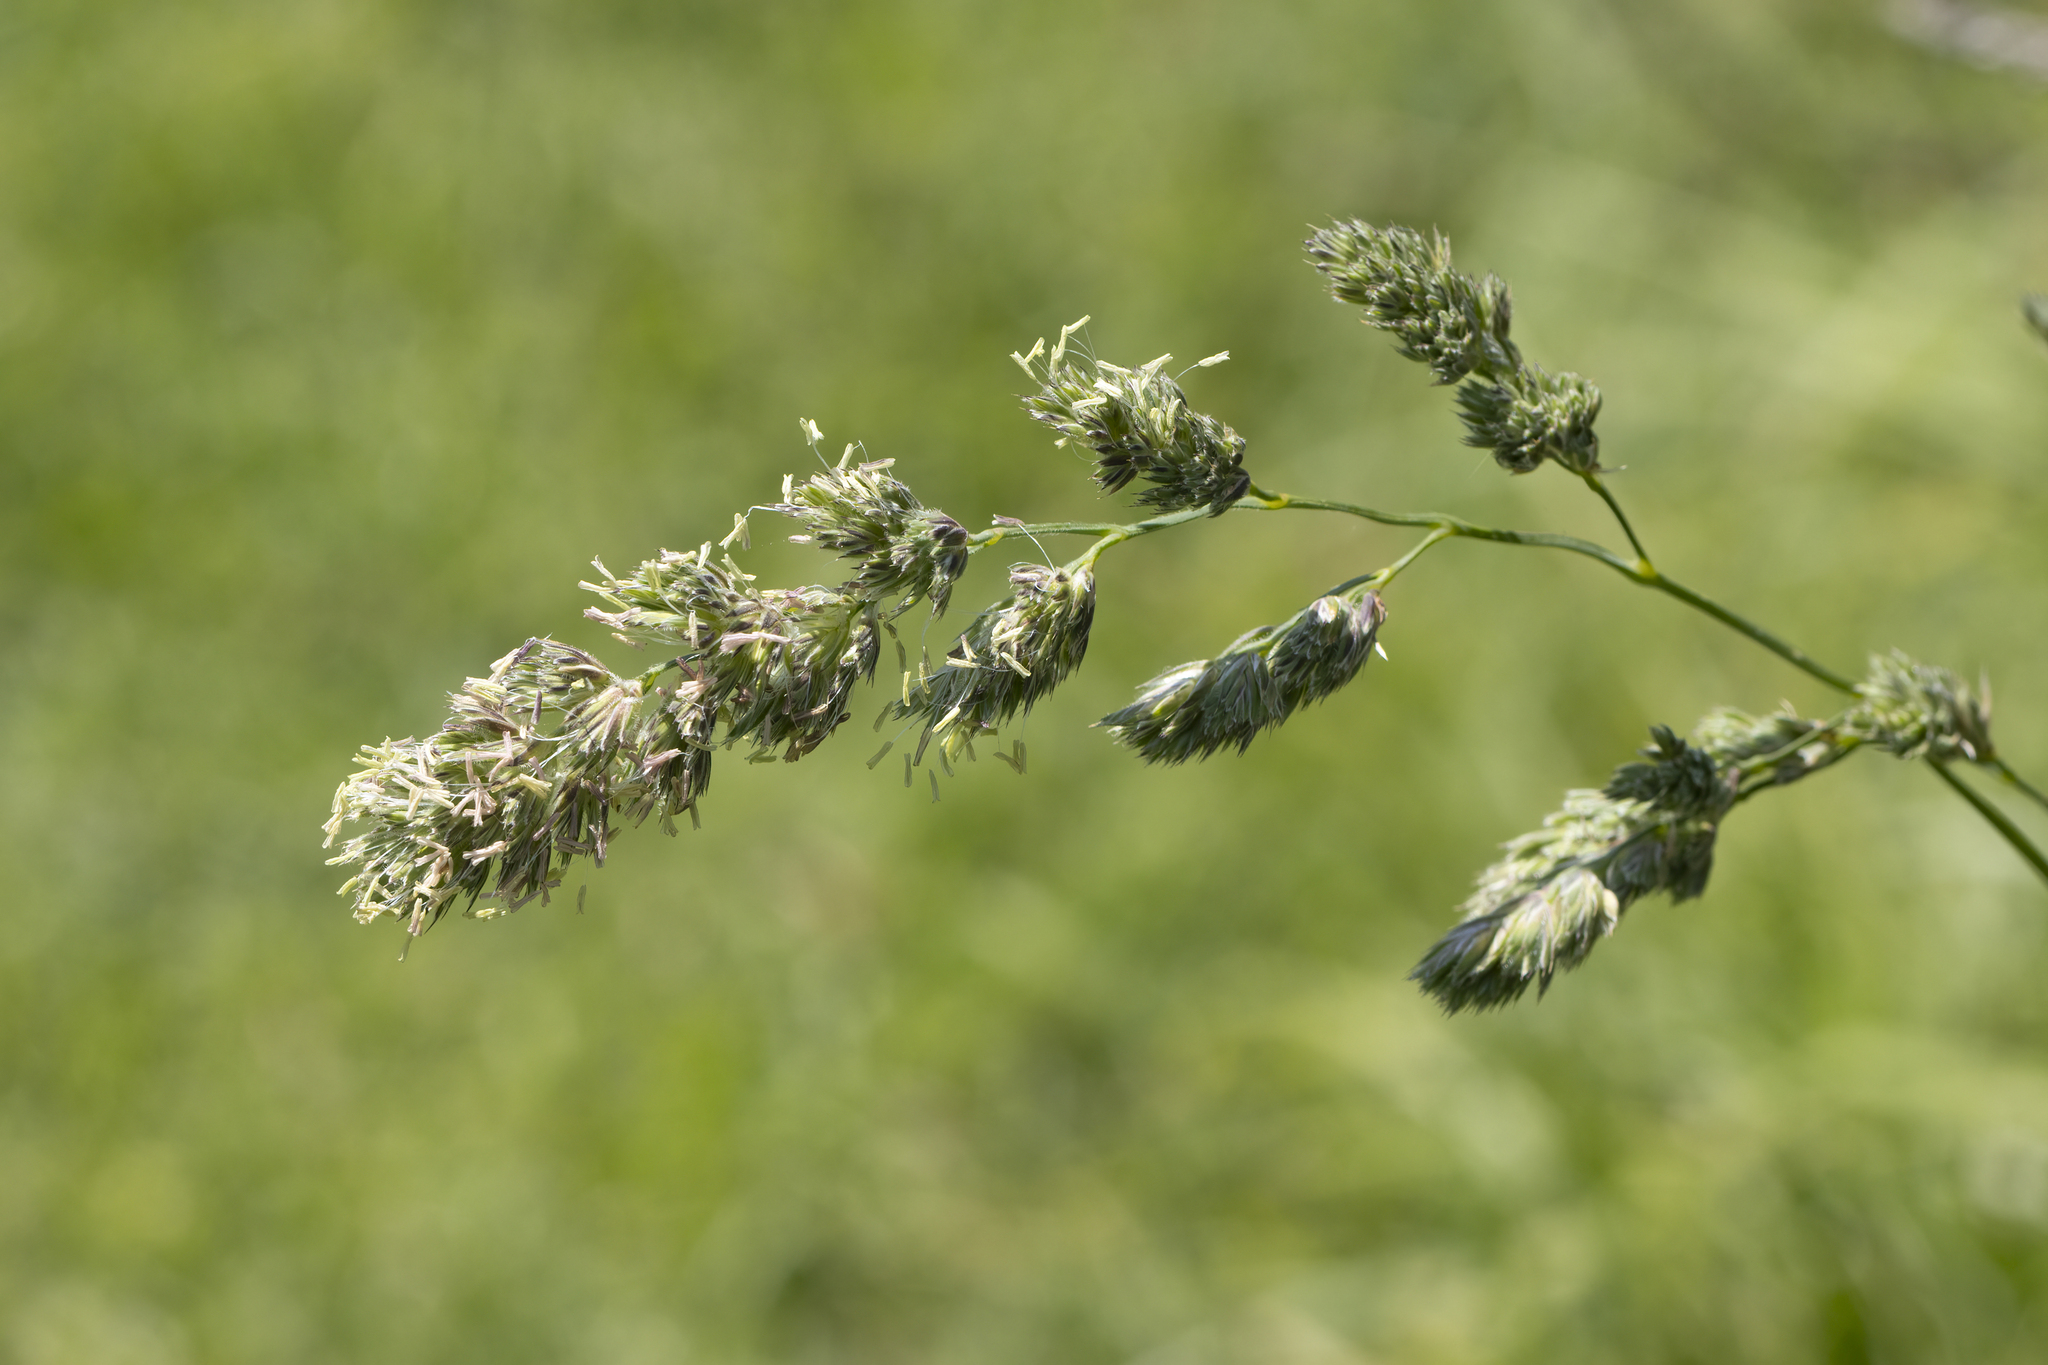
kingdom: Plantae
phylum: Tracheophyta
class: Liliopsida
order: Poales
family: Poaceae
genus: Dactylis
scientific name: Dactylis glomerata
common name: Orchardgrass
